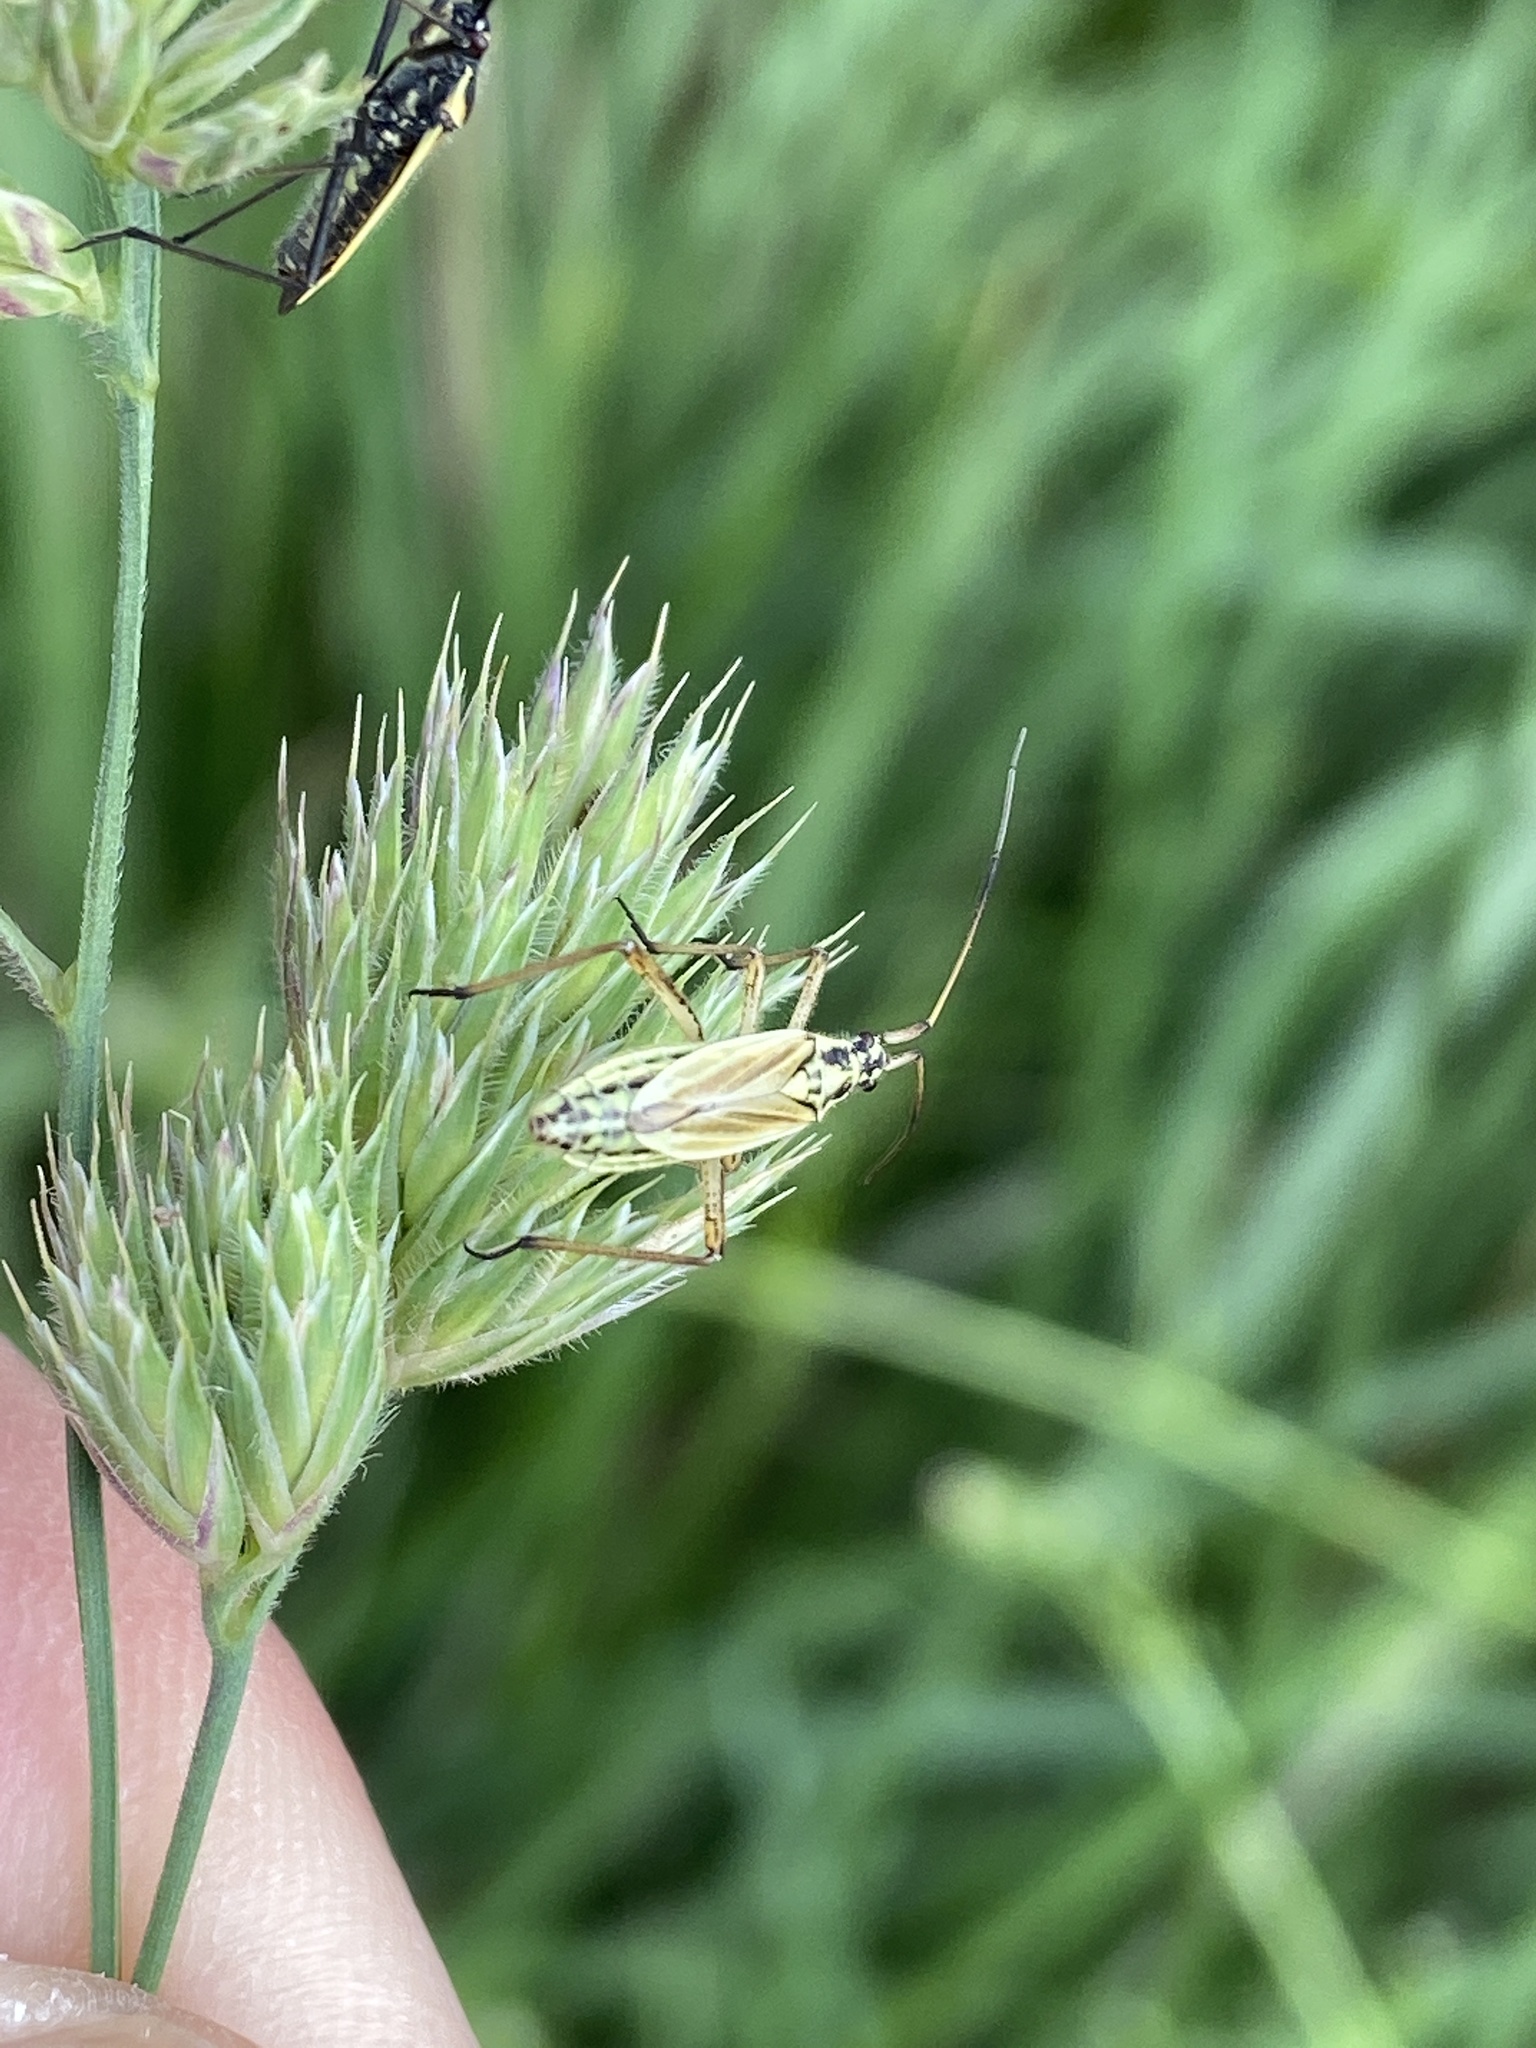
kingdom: Animalia
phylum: Arthropoda
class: Insecta
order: Hemiptera
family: Miridae
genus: Leptopterna
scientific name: Leptopterna dolabrata
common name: Meadow plant bug
